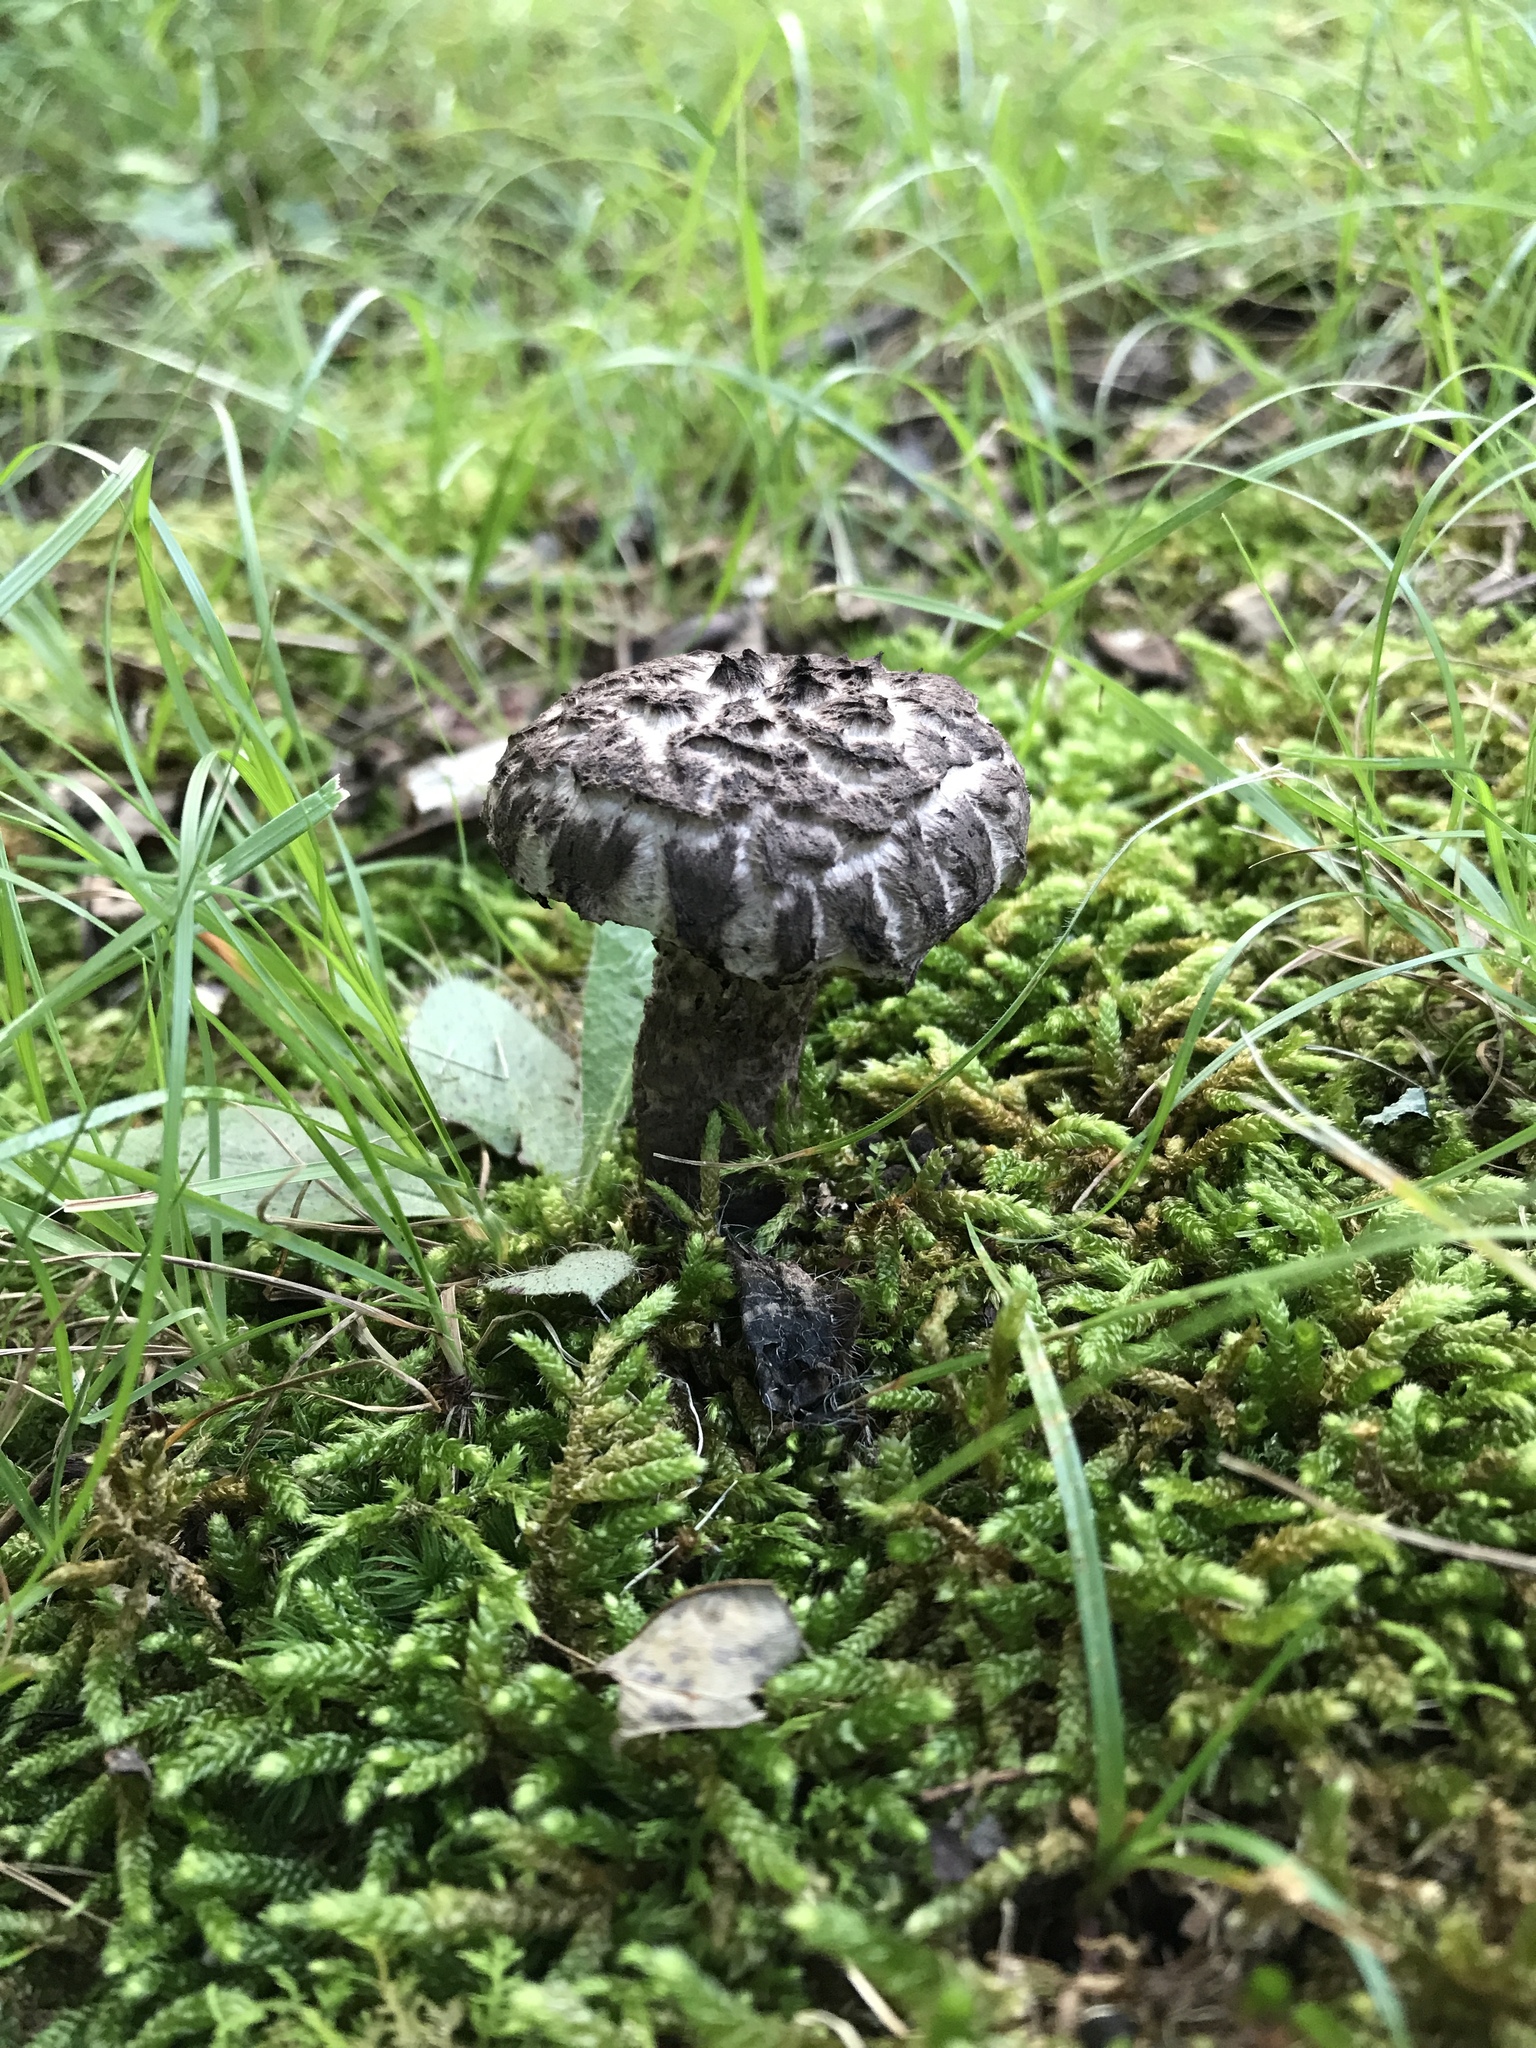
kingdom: Fungi
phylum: Basidiomycota
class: Agaricomycetes
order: Boletales
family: Boletaceae
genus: Strobilomyces
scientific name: Strobilomyces strobilaceus
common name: Old man of the woods
